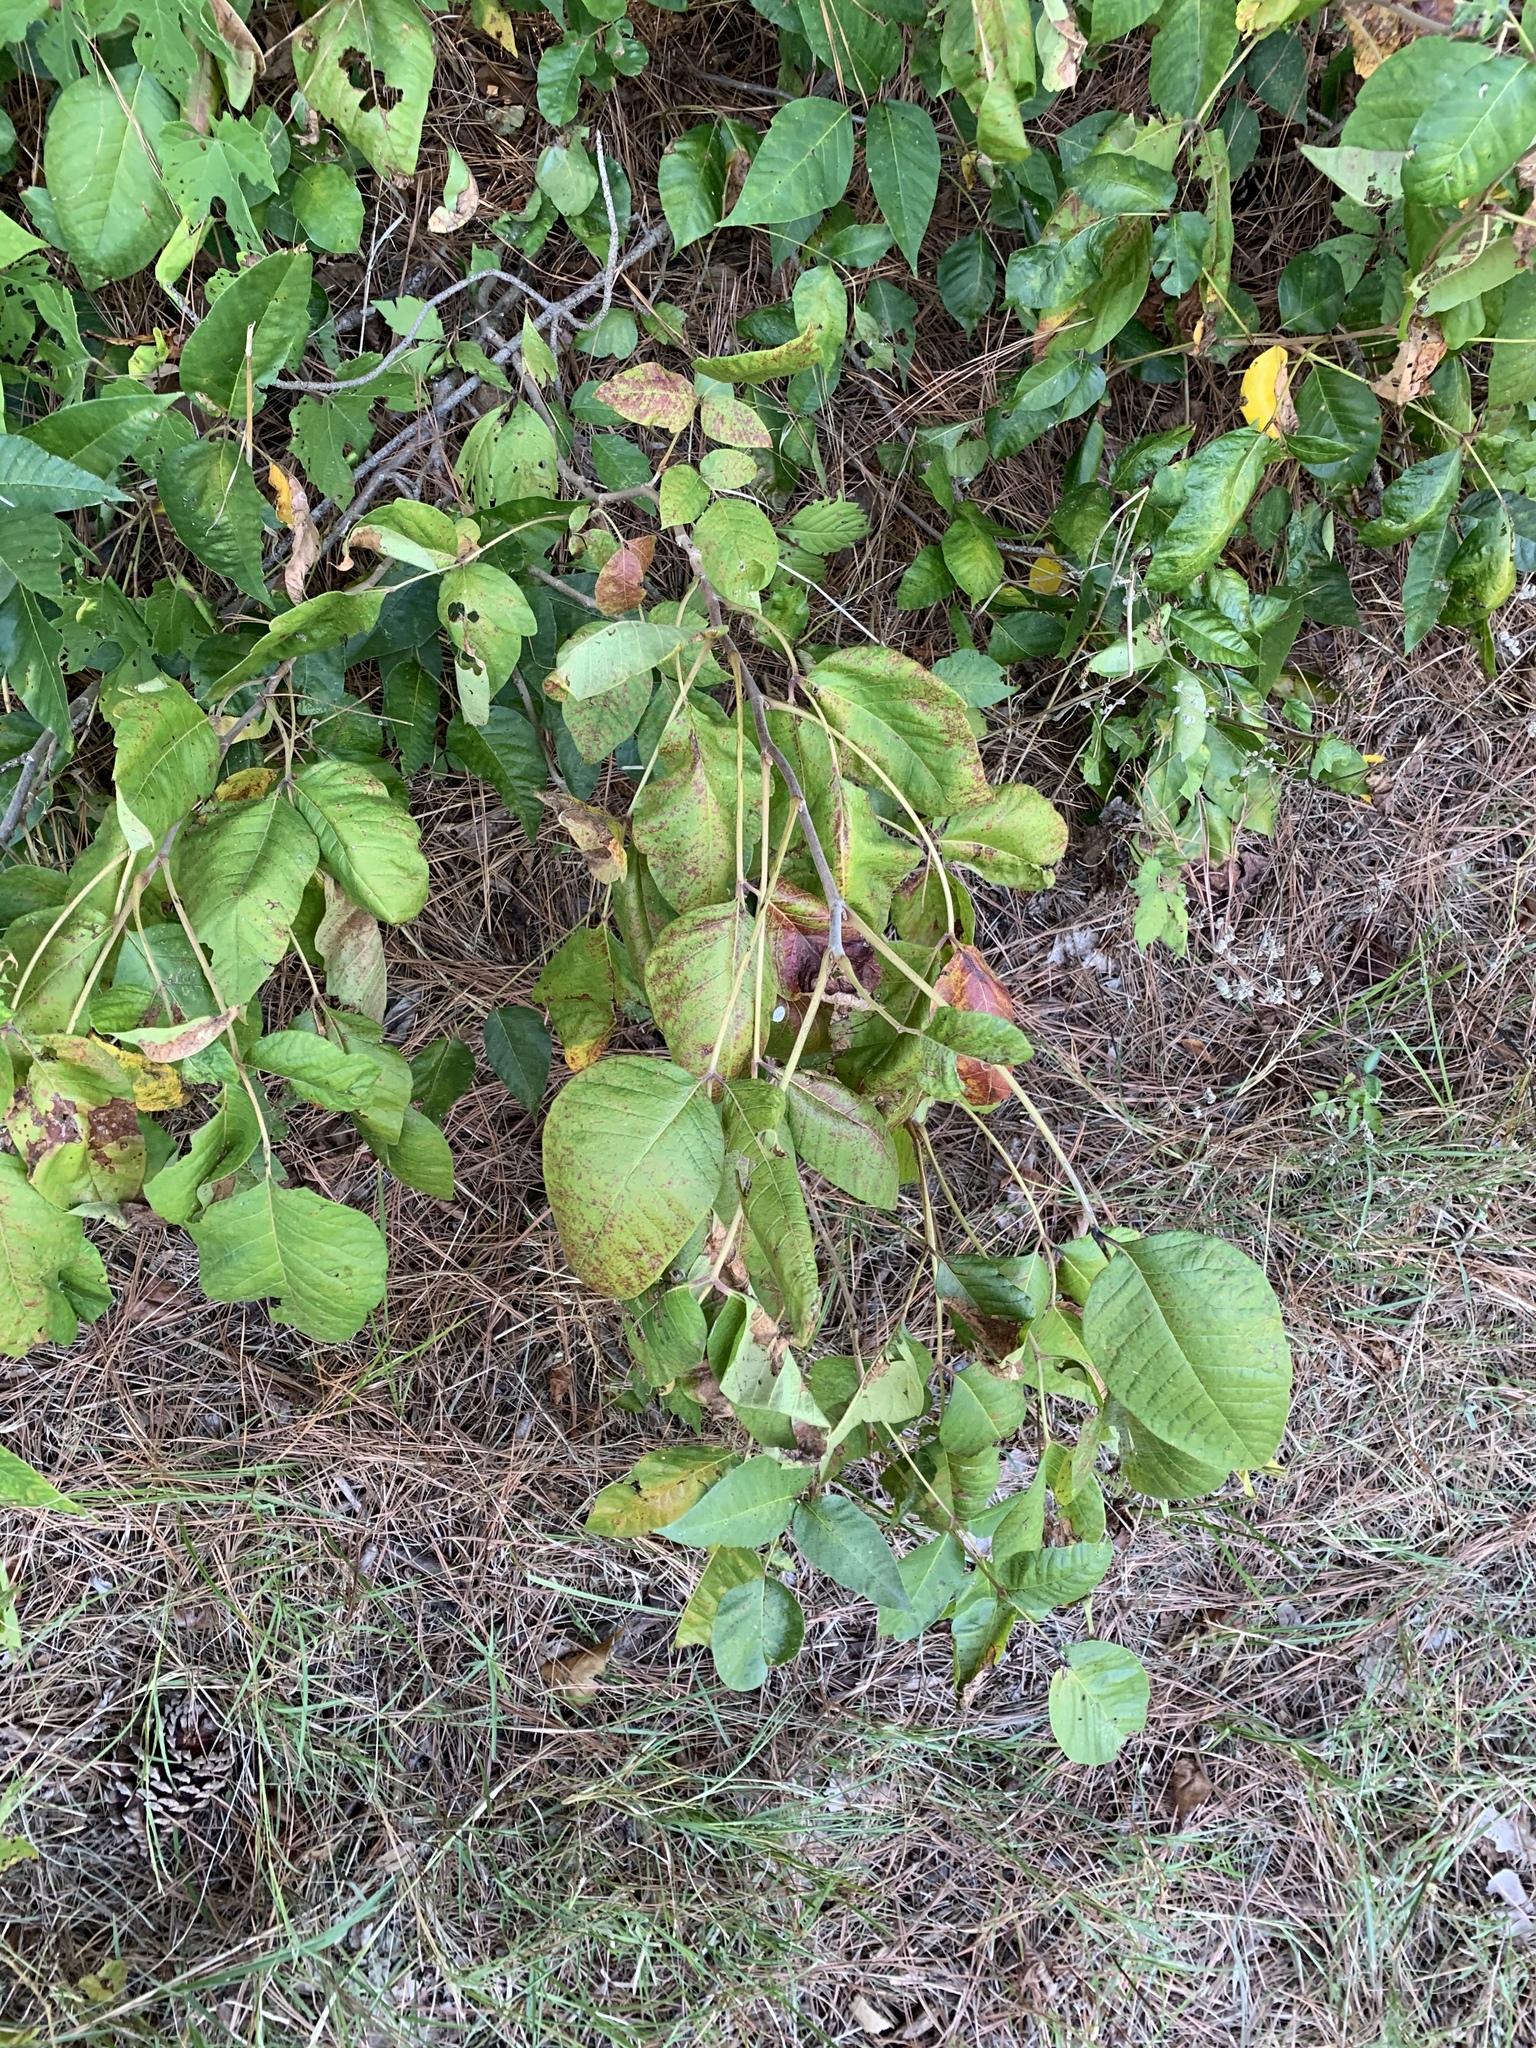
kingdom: Plantae
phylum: Tracheophyta
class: Magnoliopsida
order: Sapindales
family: Anacardiaceae
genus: Toxicodendron
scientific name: Toxicodendron radicans
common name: Poison ivy
